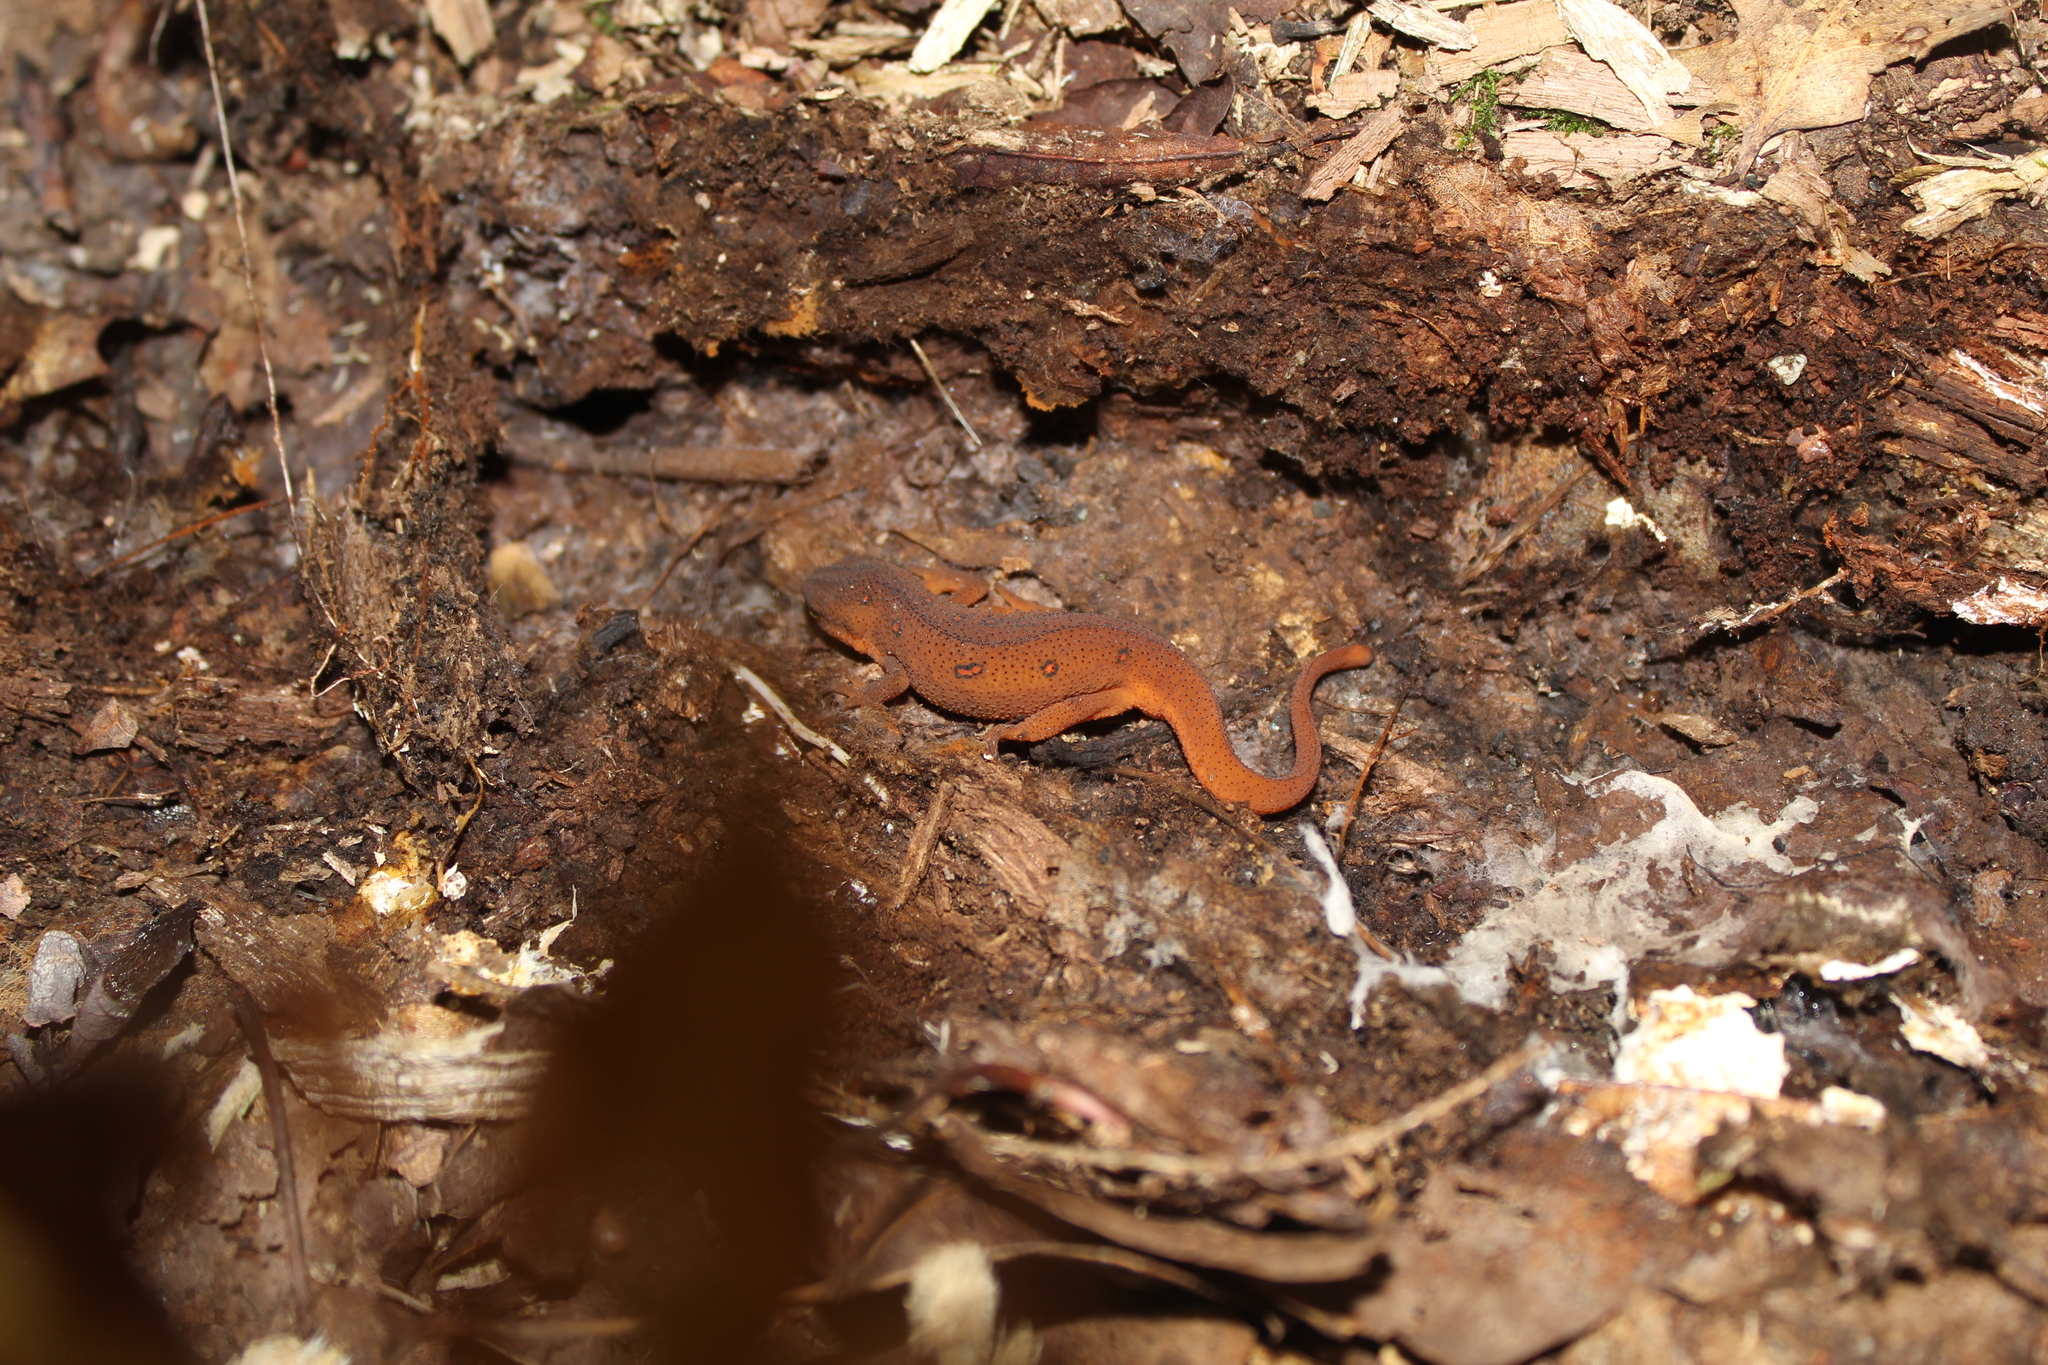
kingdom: Animalia
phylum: Chordata
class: Amphibia
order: Caudata
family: Salamandridae
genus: Notophthalmus
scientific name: Notophthalmus viridescens
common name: Eastern newt
